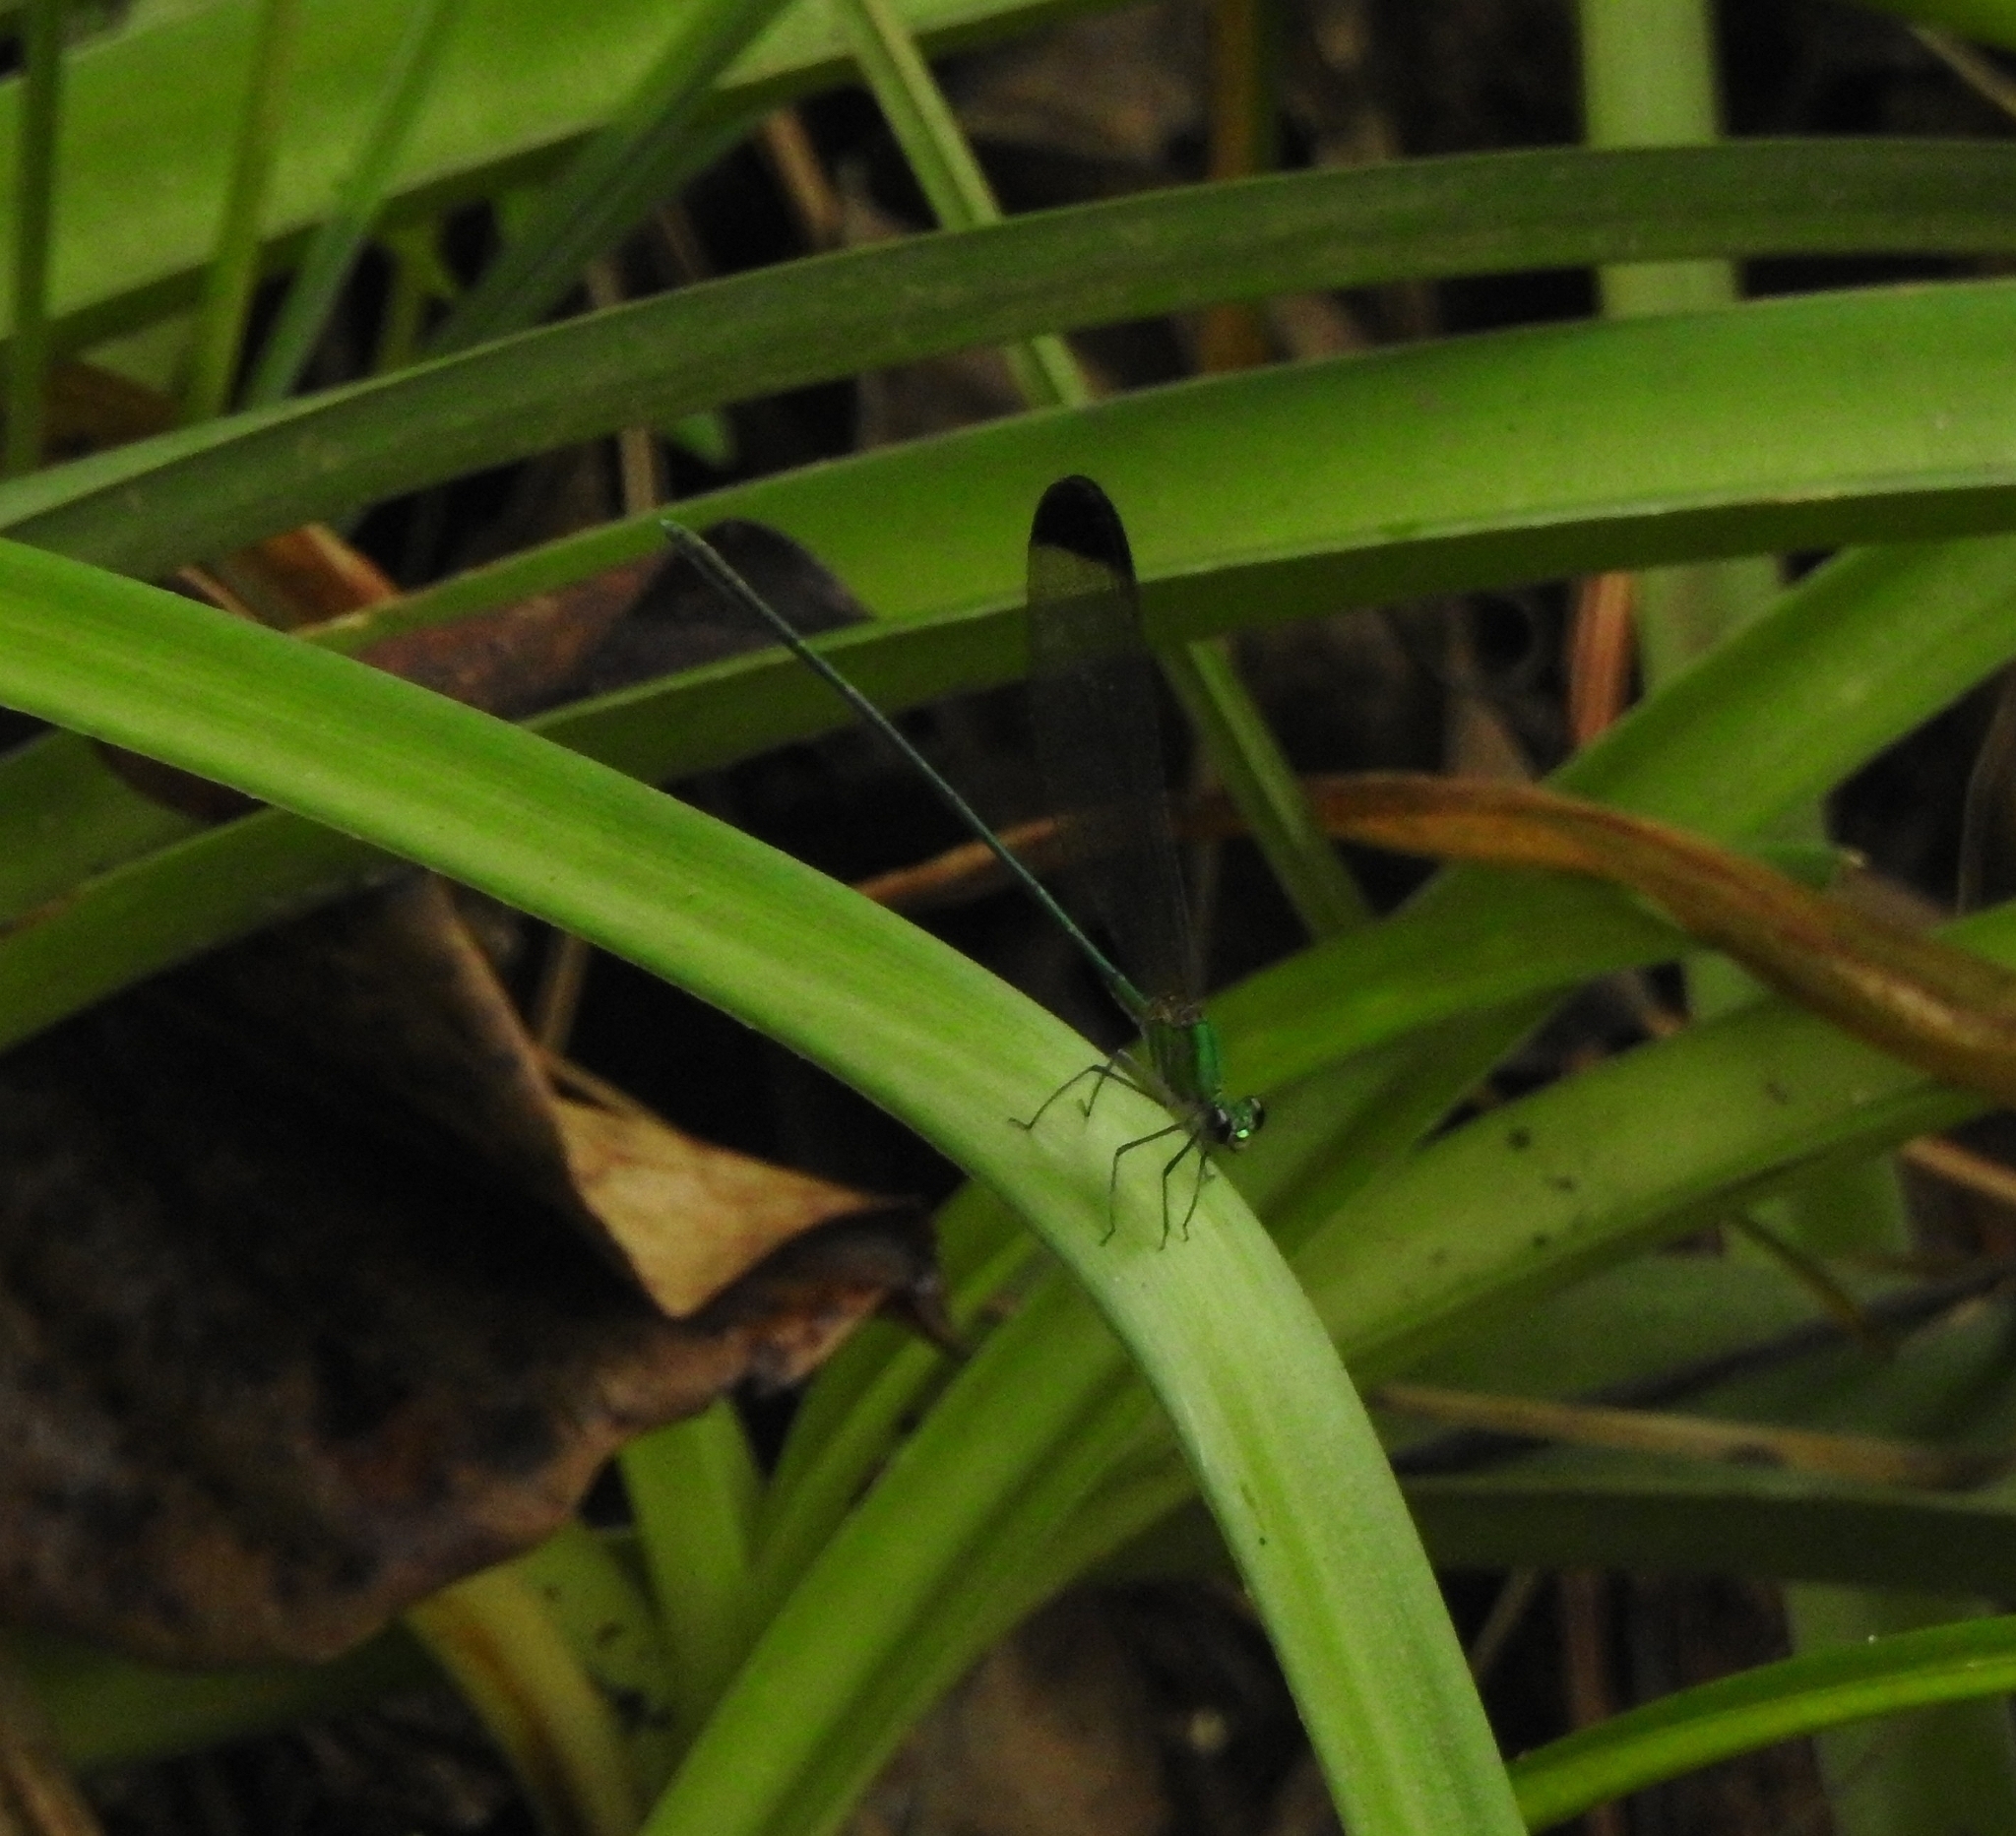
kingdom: Animalia
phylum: Arthropoda
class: Insecta
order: Odonata
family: Calopterygidae
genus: Vestalis
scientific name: Vestalis apicalis
